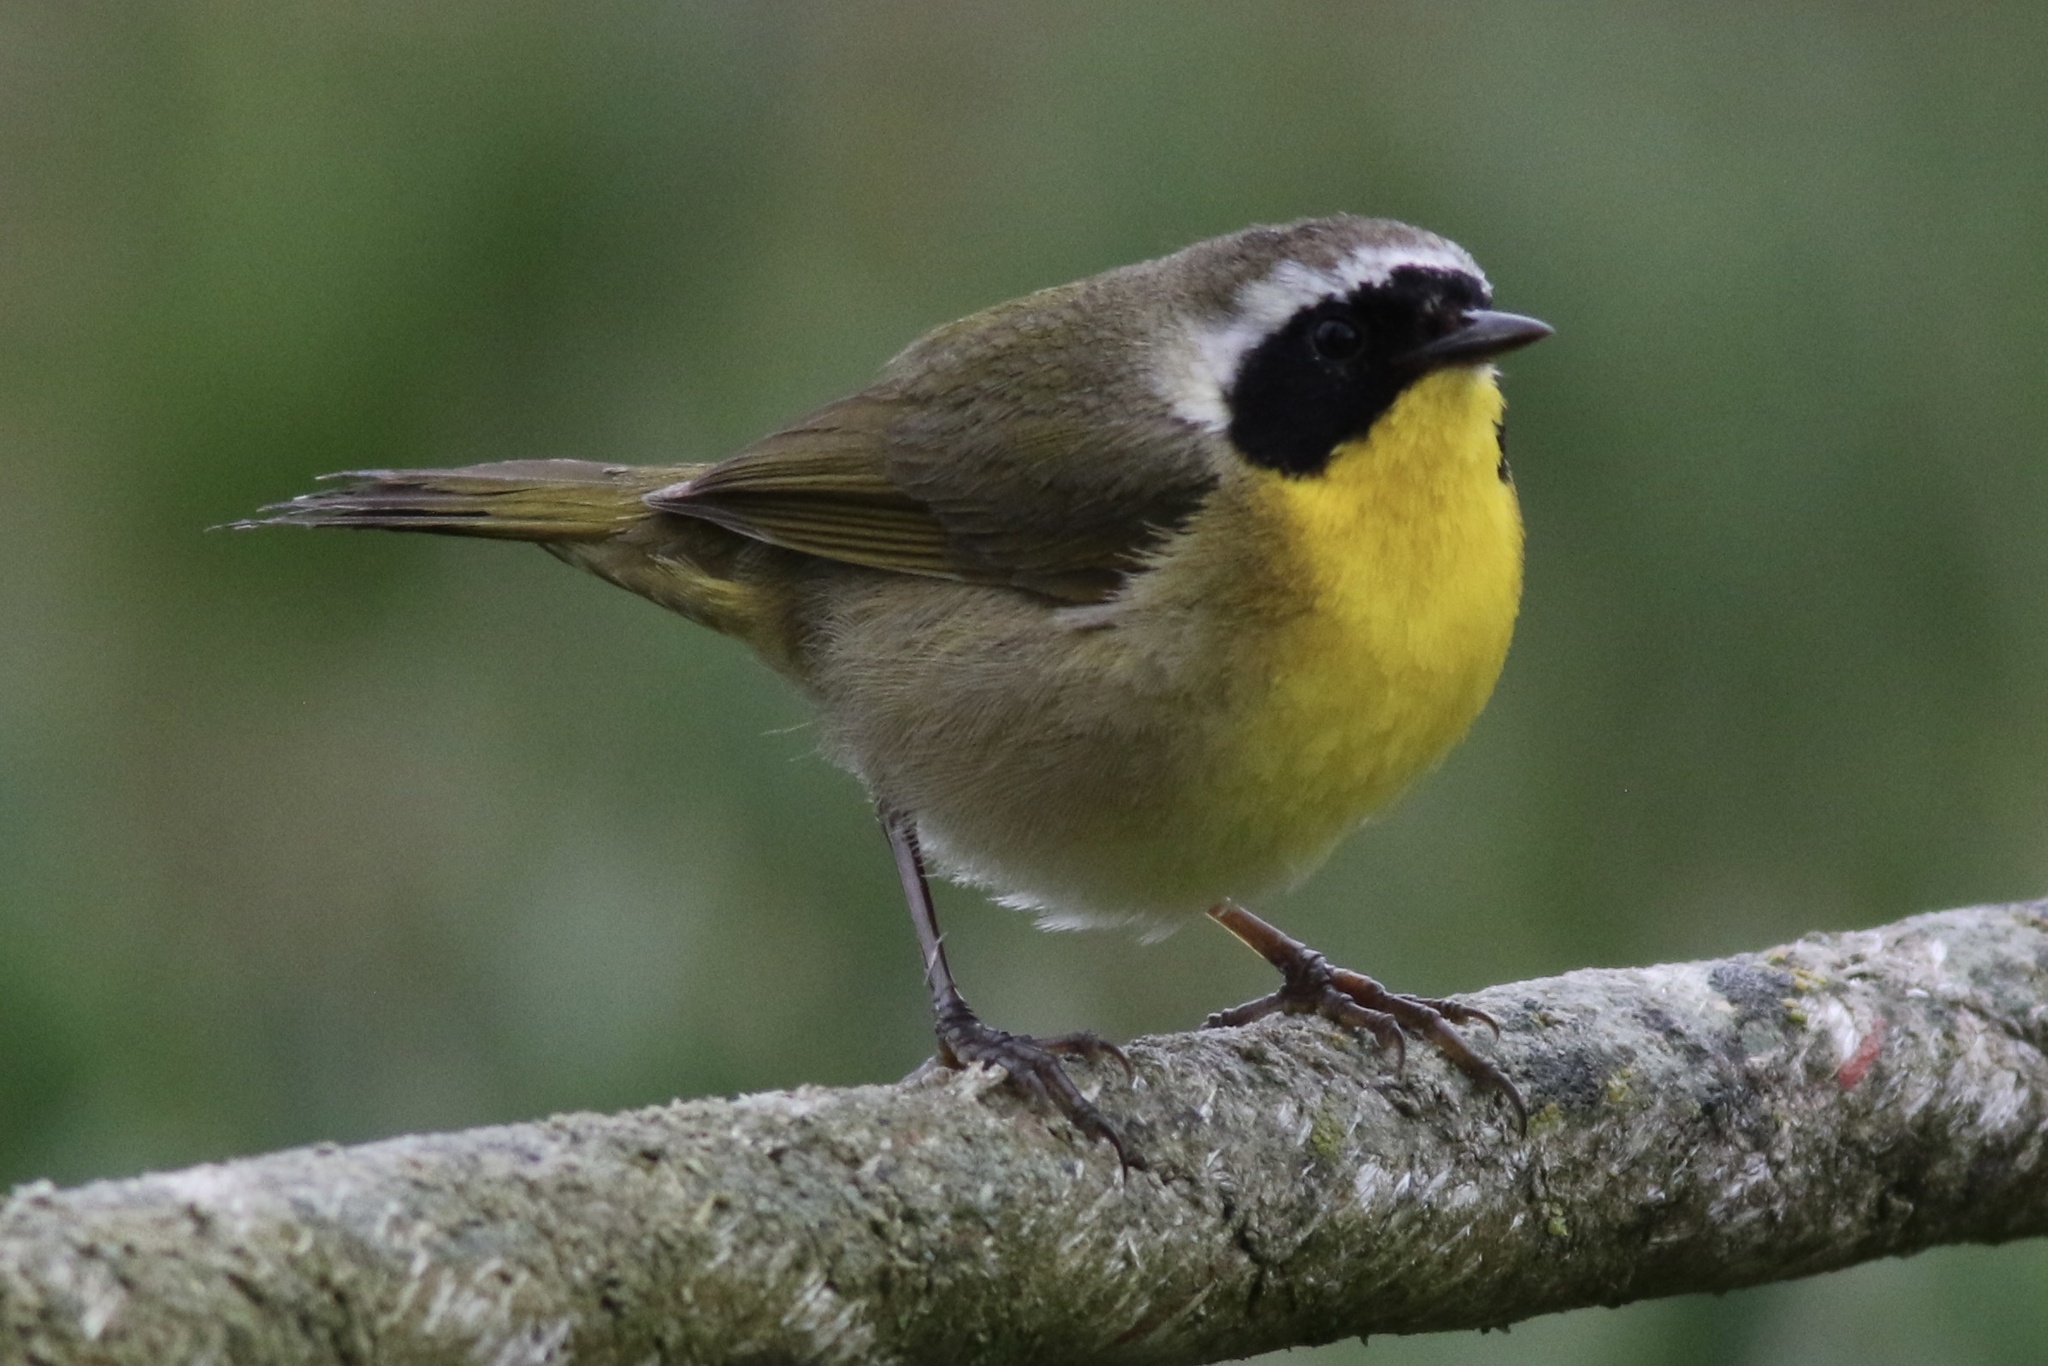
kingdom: Animalia
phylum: Chordata
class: Aves
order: Passeriformes
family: Parulidae
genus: Geothlypis
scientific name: Geothlypis trichas
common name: Common yellowthroat
